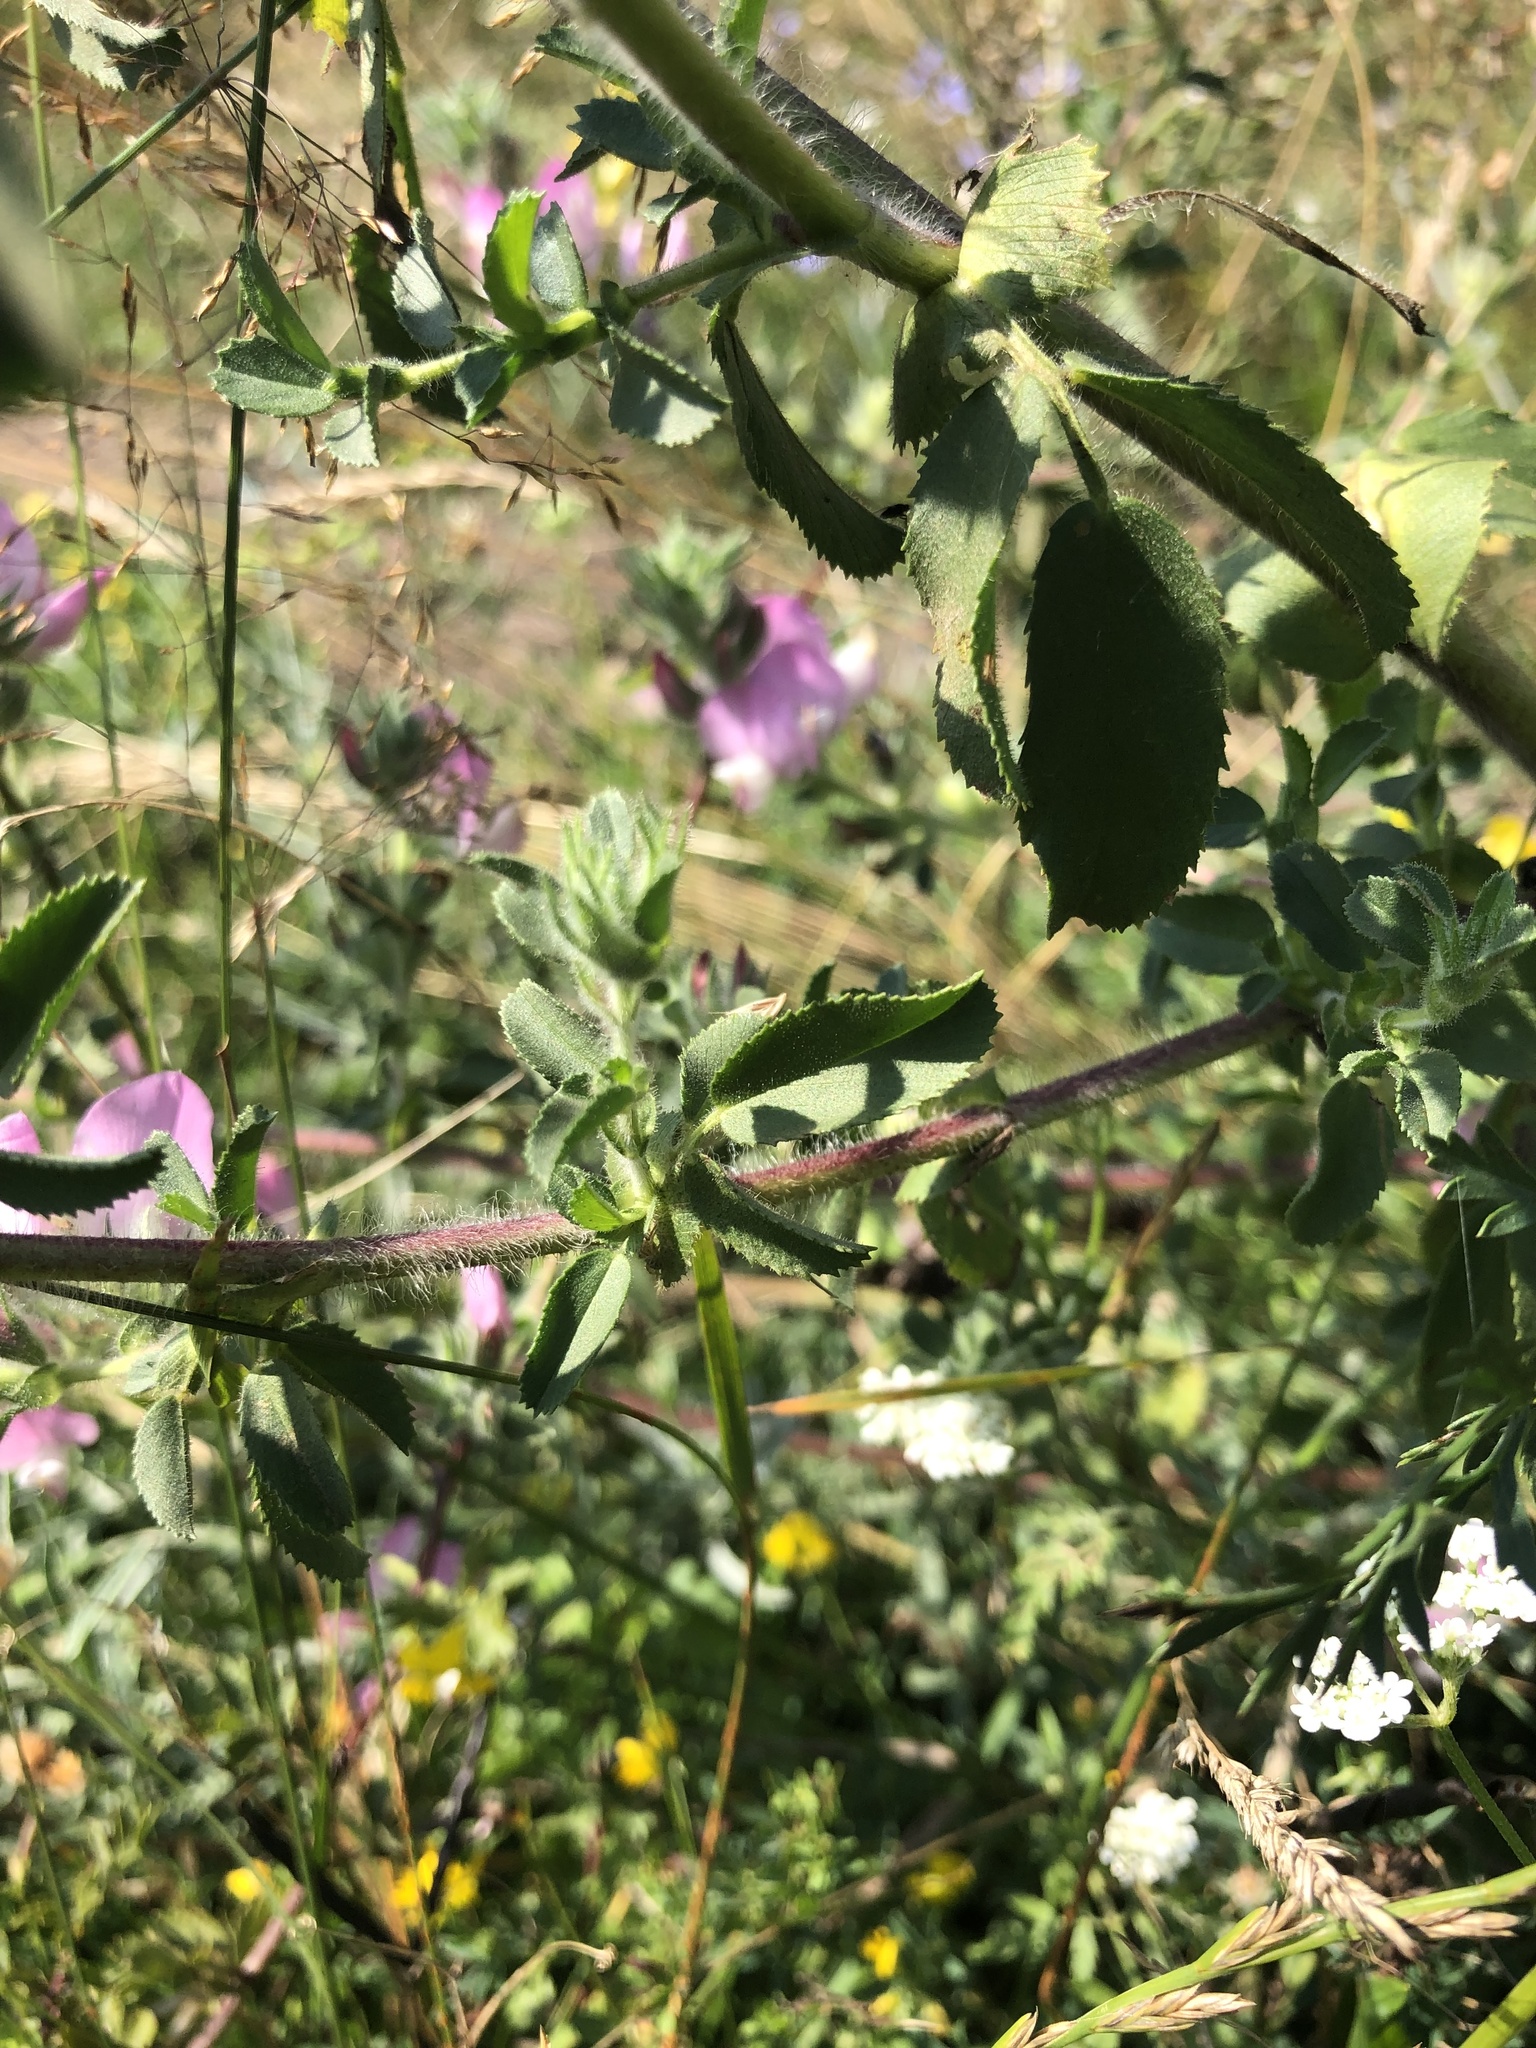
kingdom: Plantae
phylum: Tracheophyta
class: Magnoliopsida
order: Fabales
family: Fabaceae
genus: Ononis
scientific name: Ononis spinosa
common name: Spiny restharrow
